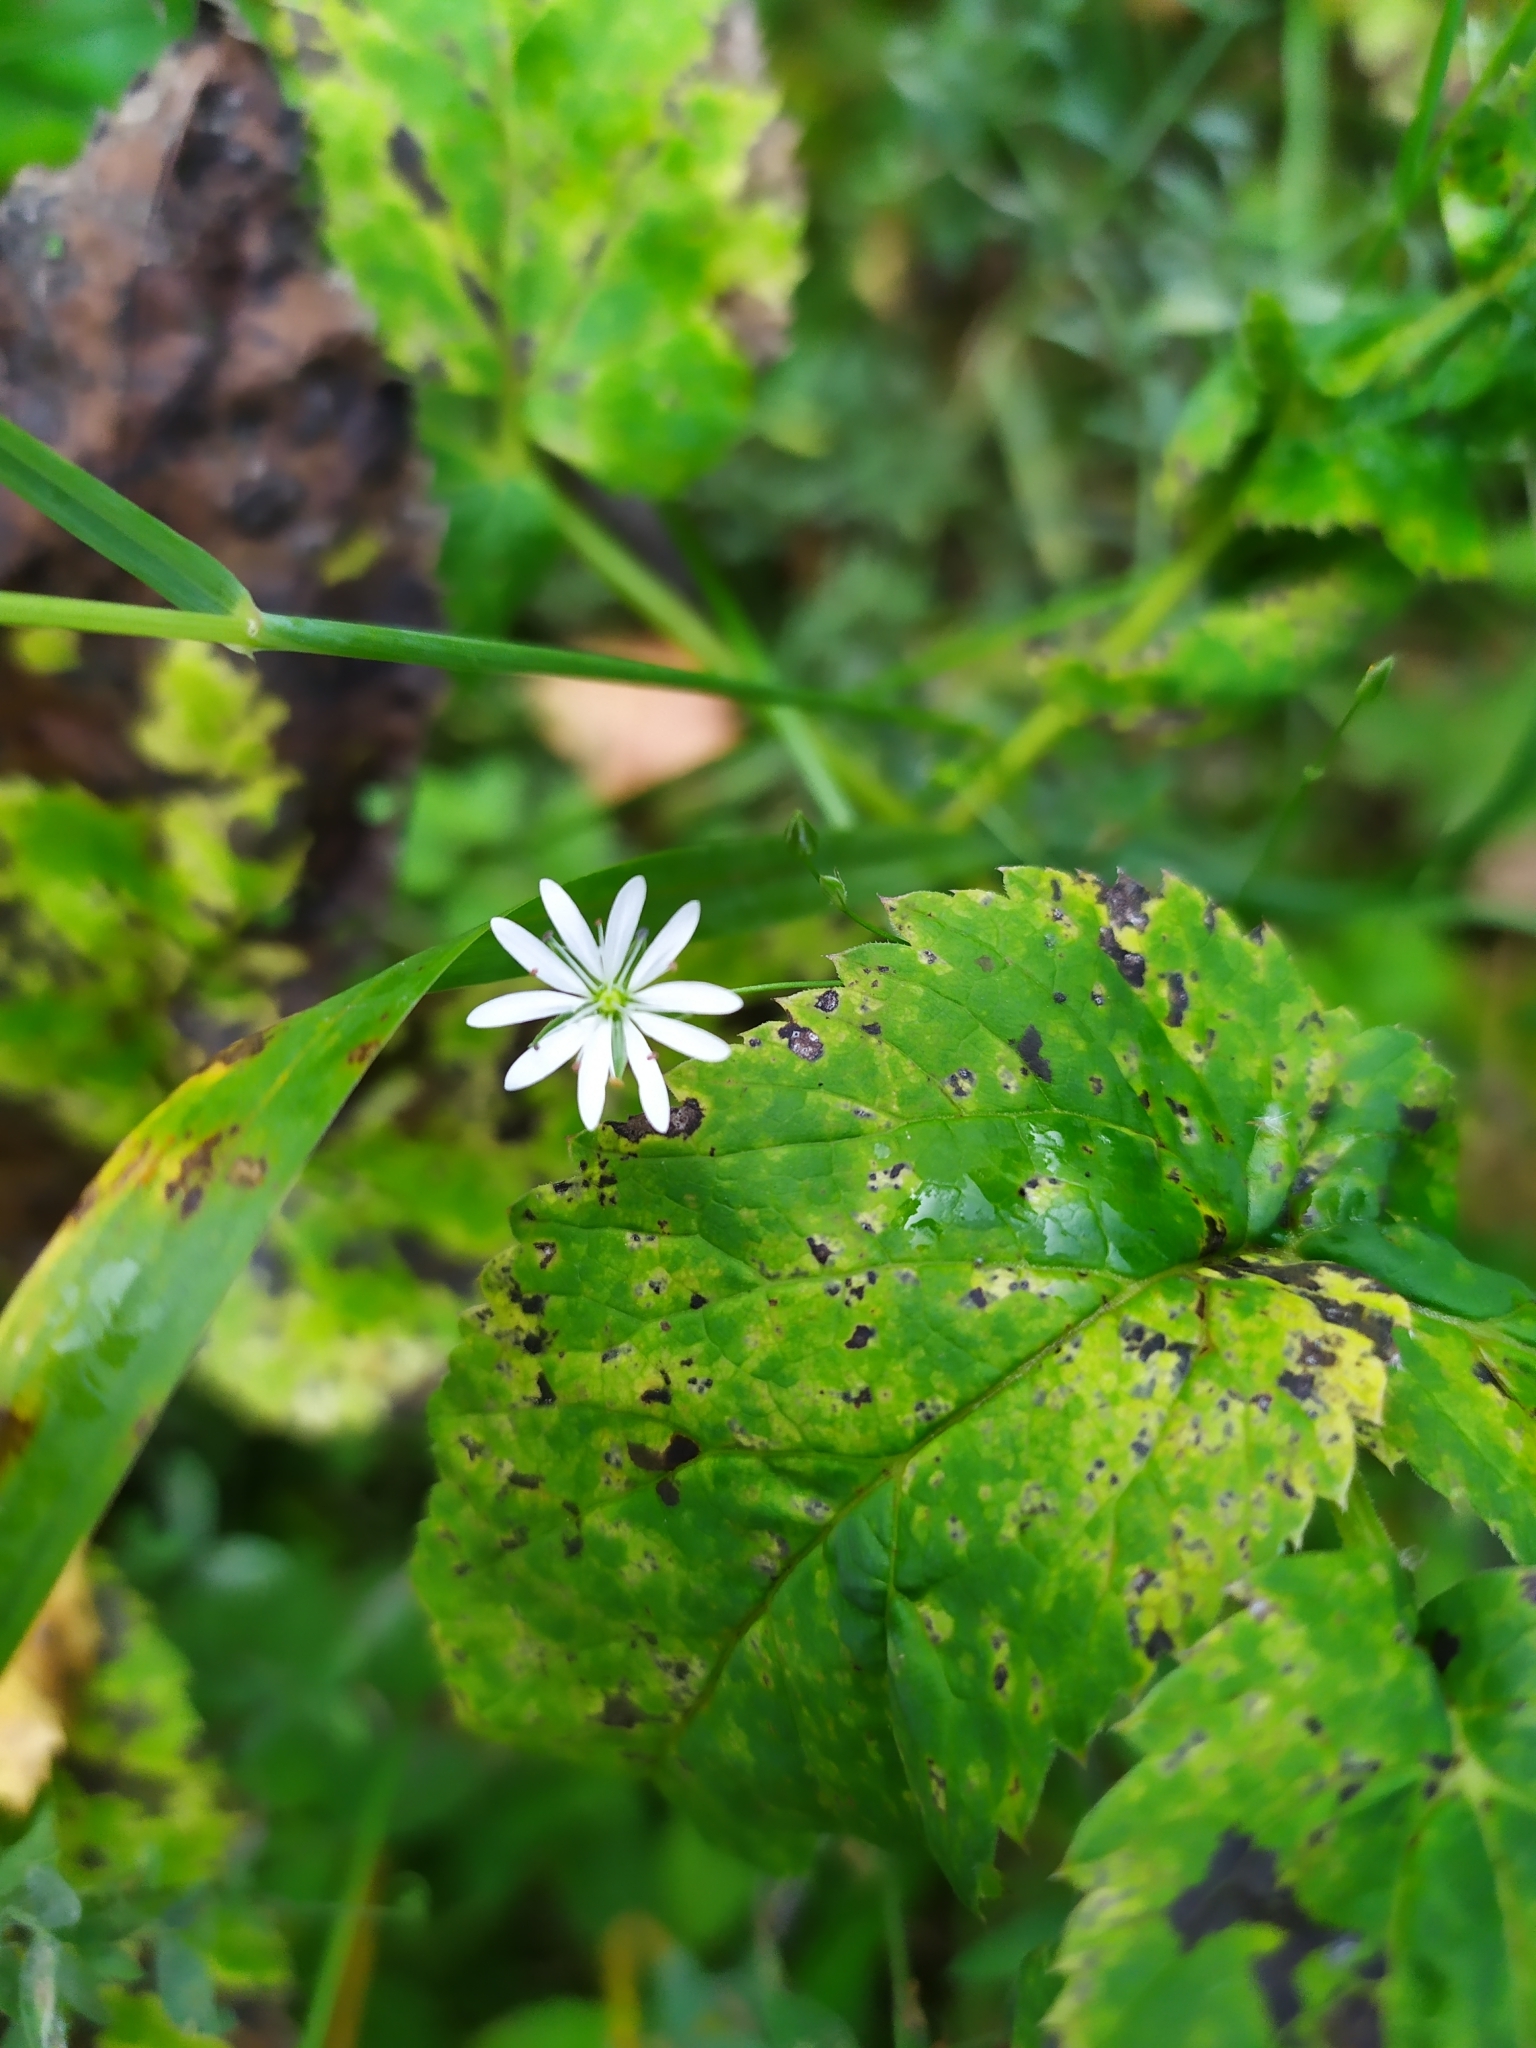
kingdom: Plantae
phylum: Tracheophyta
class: Magnoliopsida
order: Caryophyllales
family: Caryophyllaceae
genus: Stellaria
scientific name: Stellaria graminea
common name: Grass-like starwort
